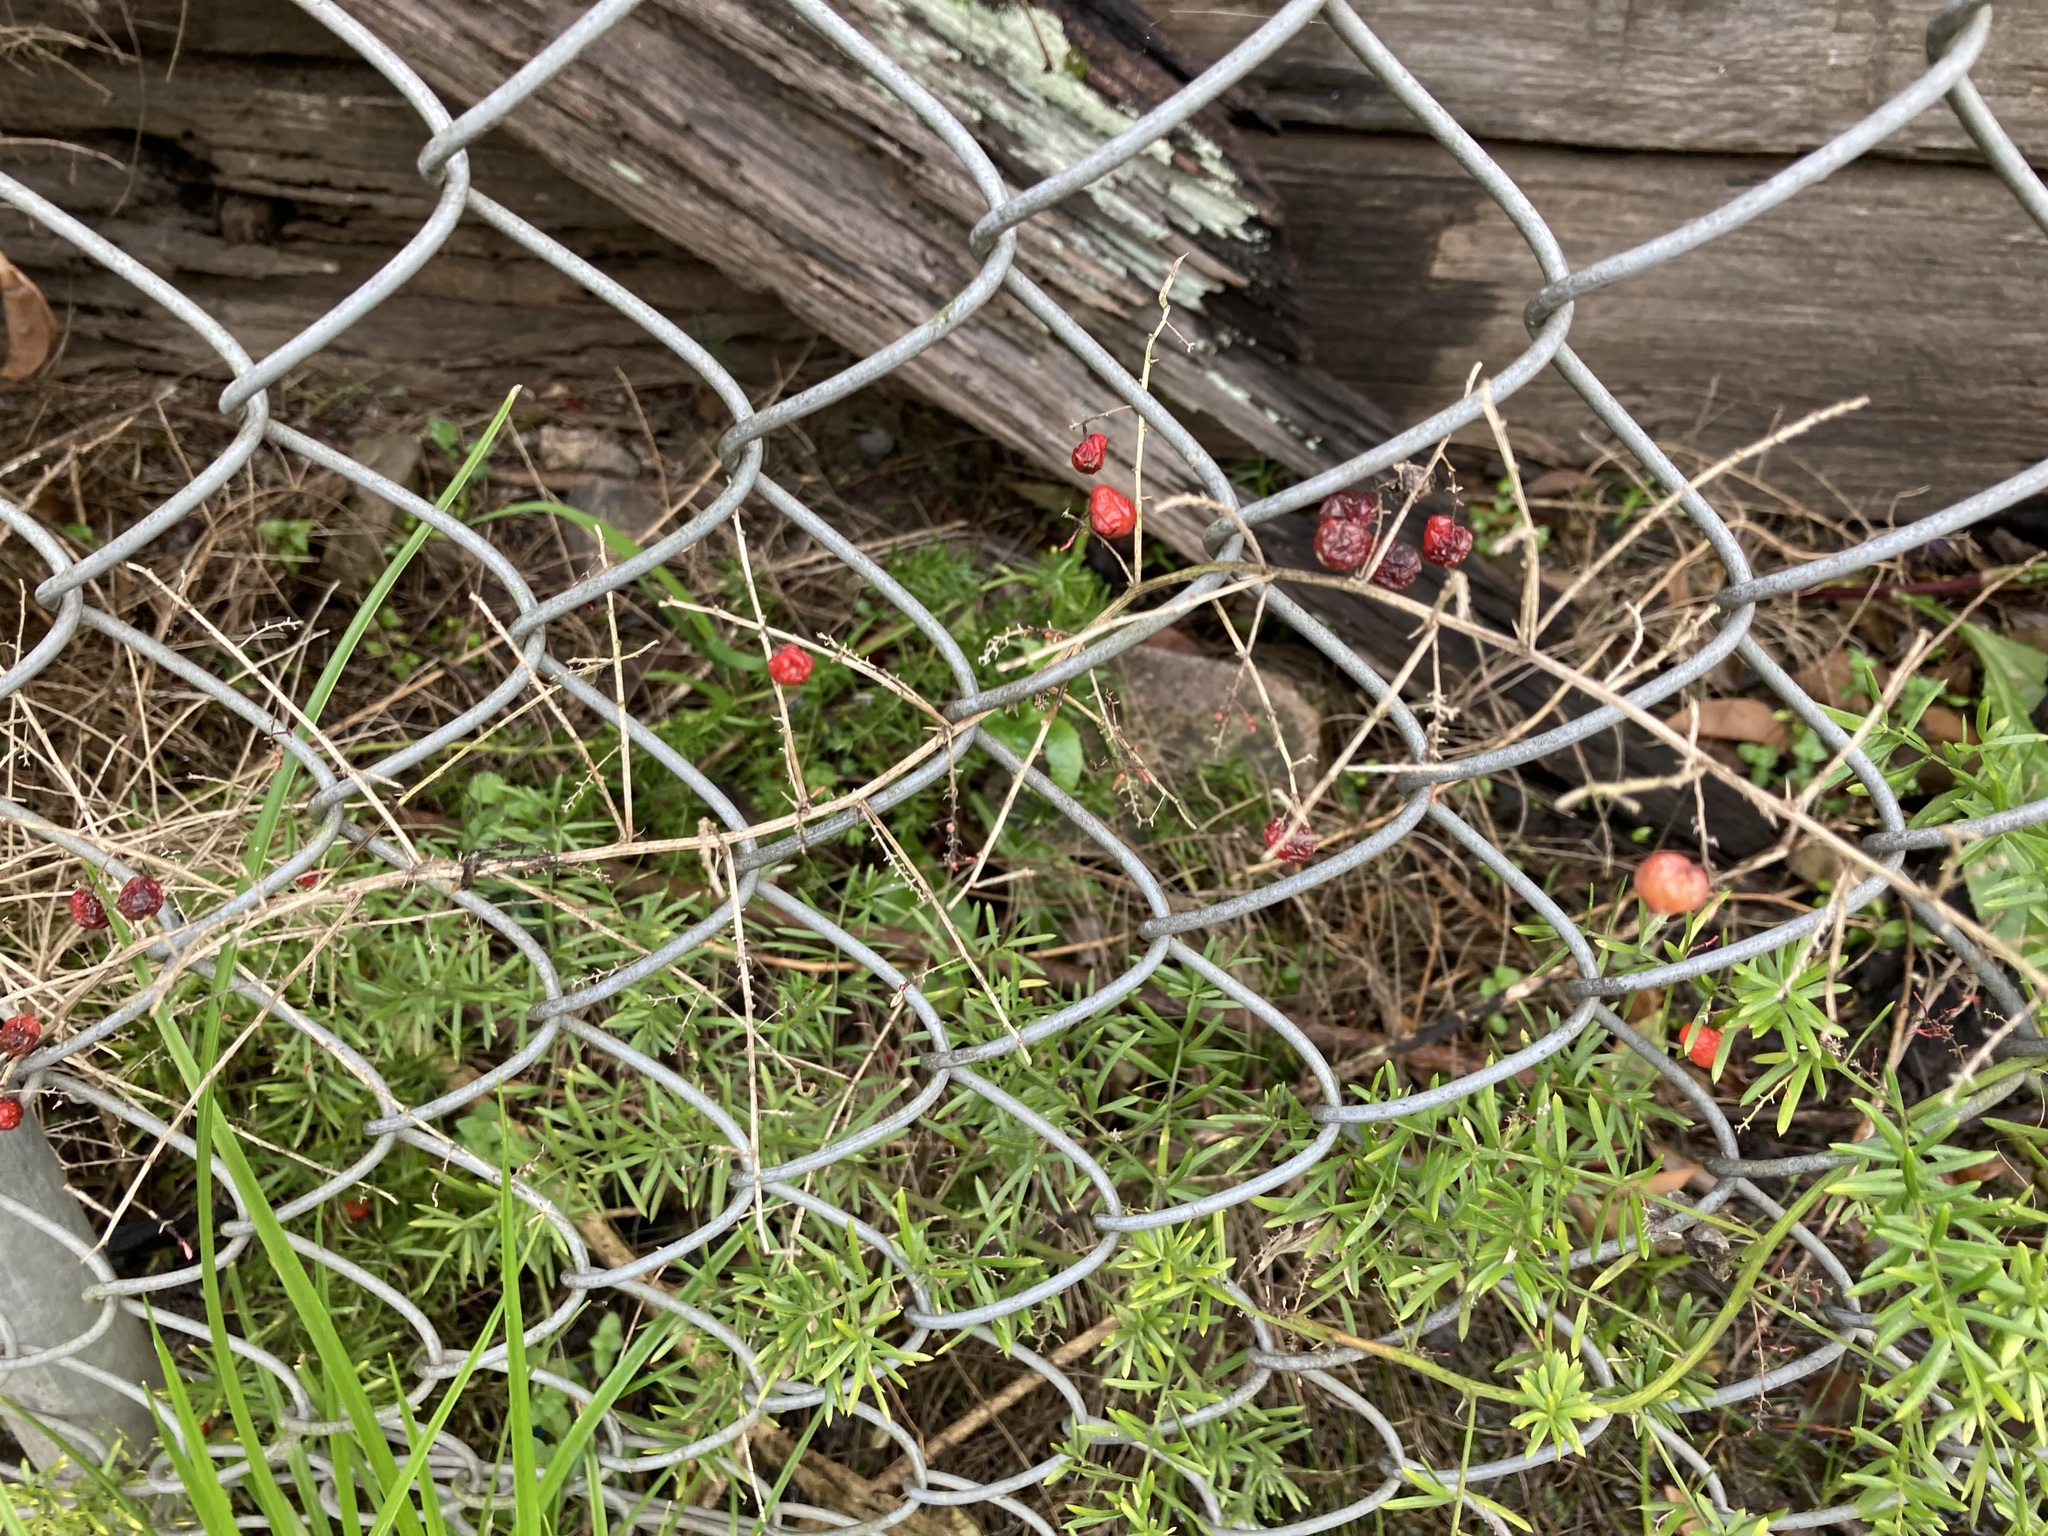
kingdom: Plantae
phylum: Tracheophyta
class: Liliopsida
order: Asparagales
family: Asparagaceae
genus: Asparagus
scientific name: Asparagus aethiopicus
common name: Sprenger's asparagus fern
